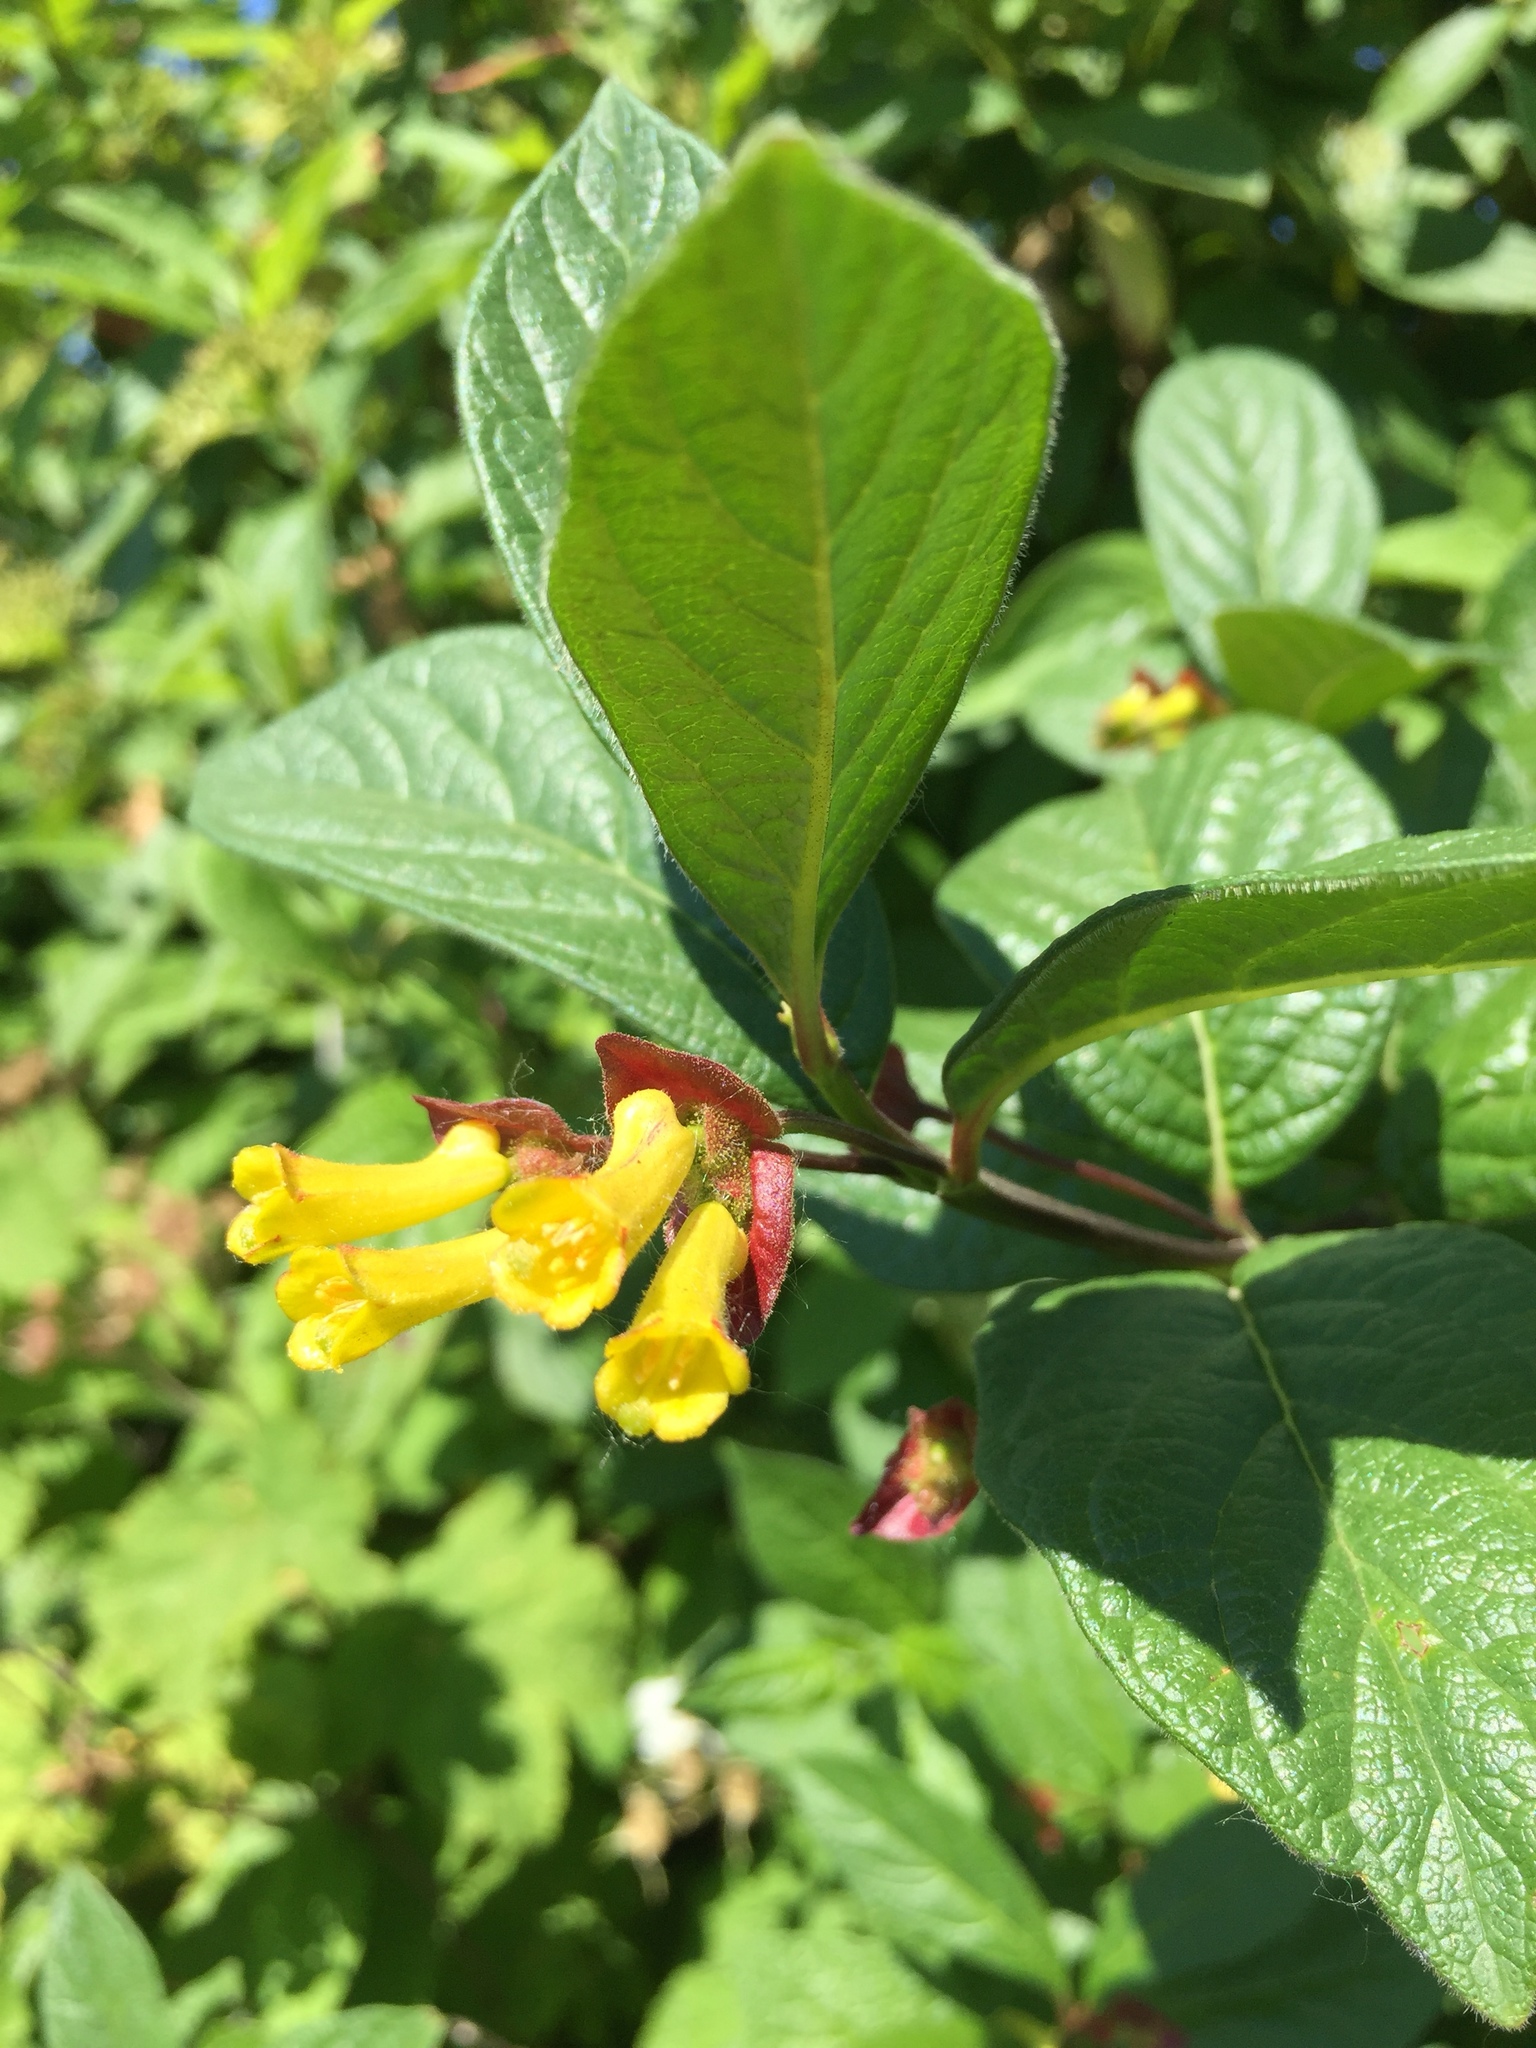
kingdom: Plantae
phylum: Tracheophyta
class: Magnoliopsida
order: Dipsacales
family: Caprifoliaceae
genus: Lonicera
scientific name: Lonicera involucrata
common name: Californian honeysuckle
